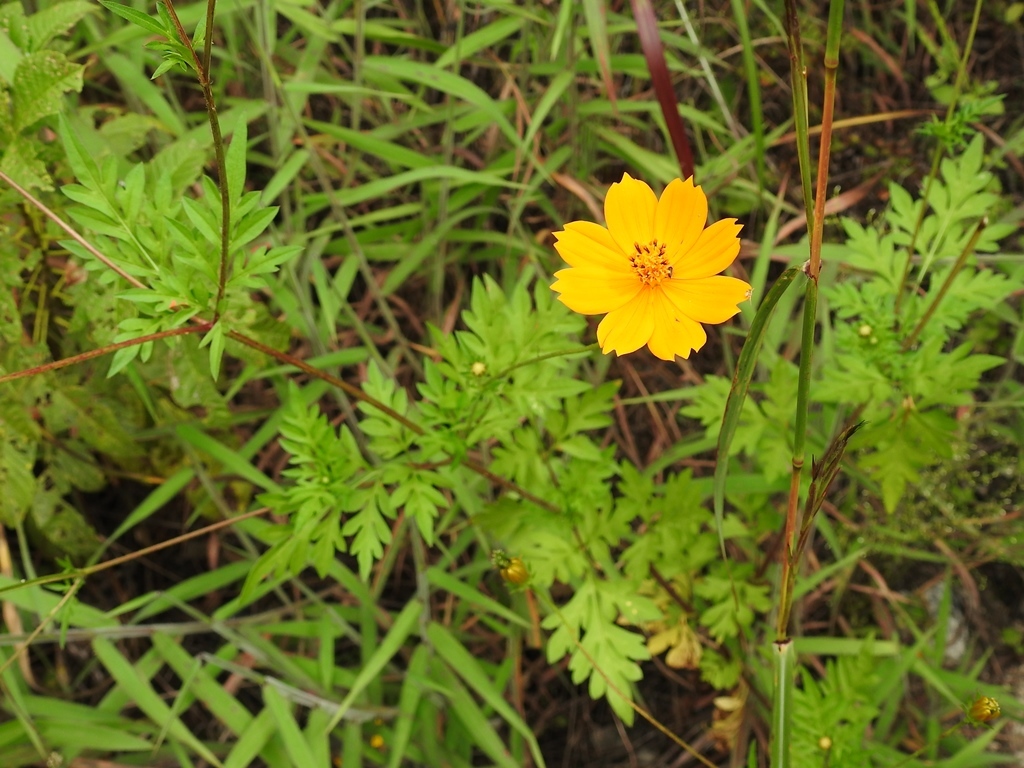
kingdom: Plantae
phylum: Tracheophyta
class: Magnoliopsida
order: Asterales
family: Asteraceae
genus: Cosmos
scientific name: Cosmos sulphureus
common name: Sulphur cosmos
